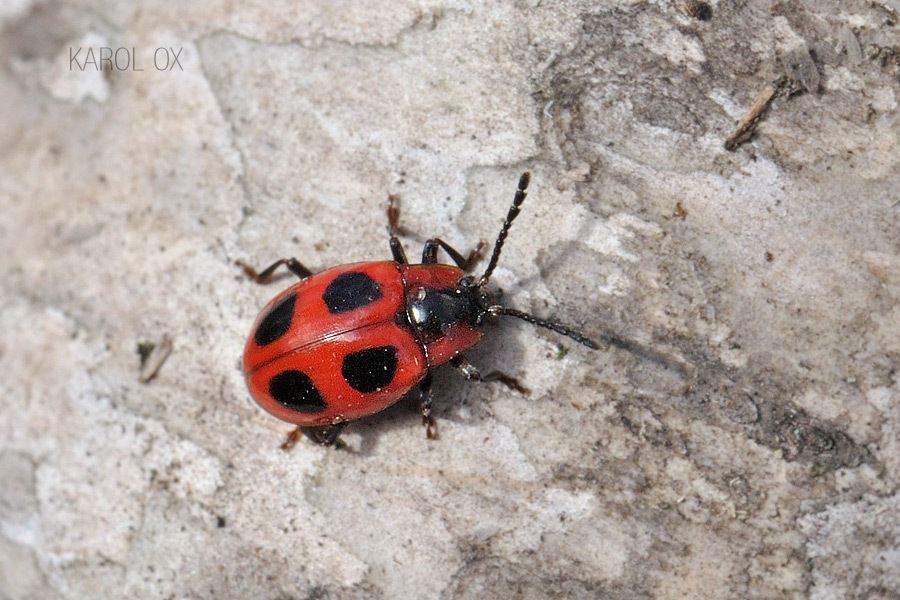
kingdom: Animalia
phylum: Arthropoda
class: Insecta
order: Coleoptera
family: Endomychidae
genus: Endomychus
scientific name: Endomychus coccineus
